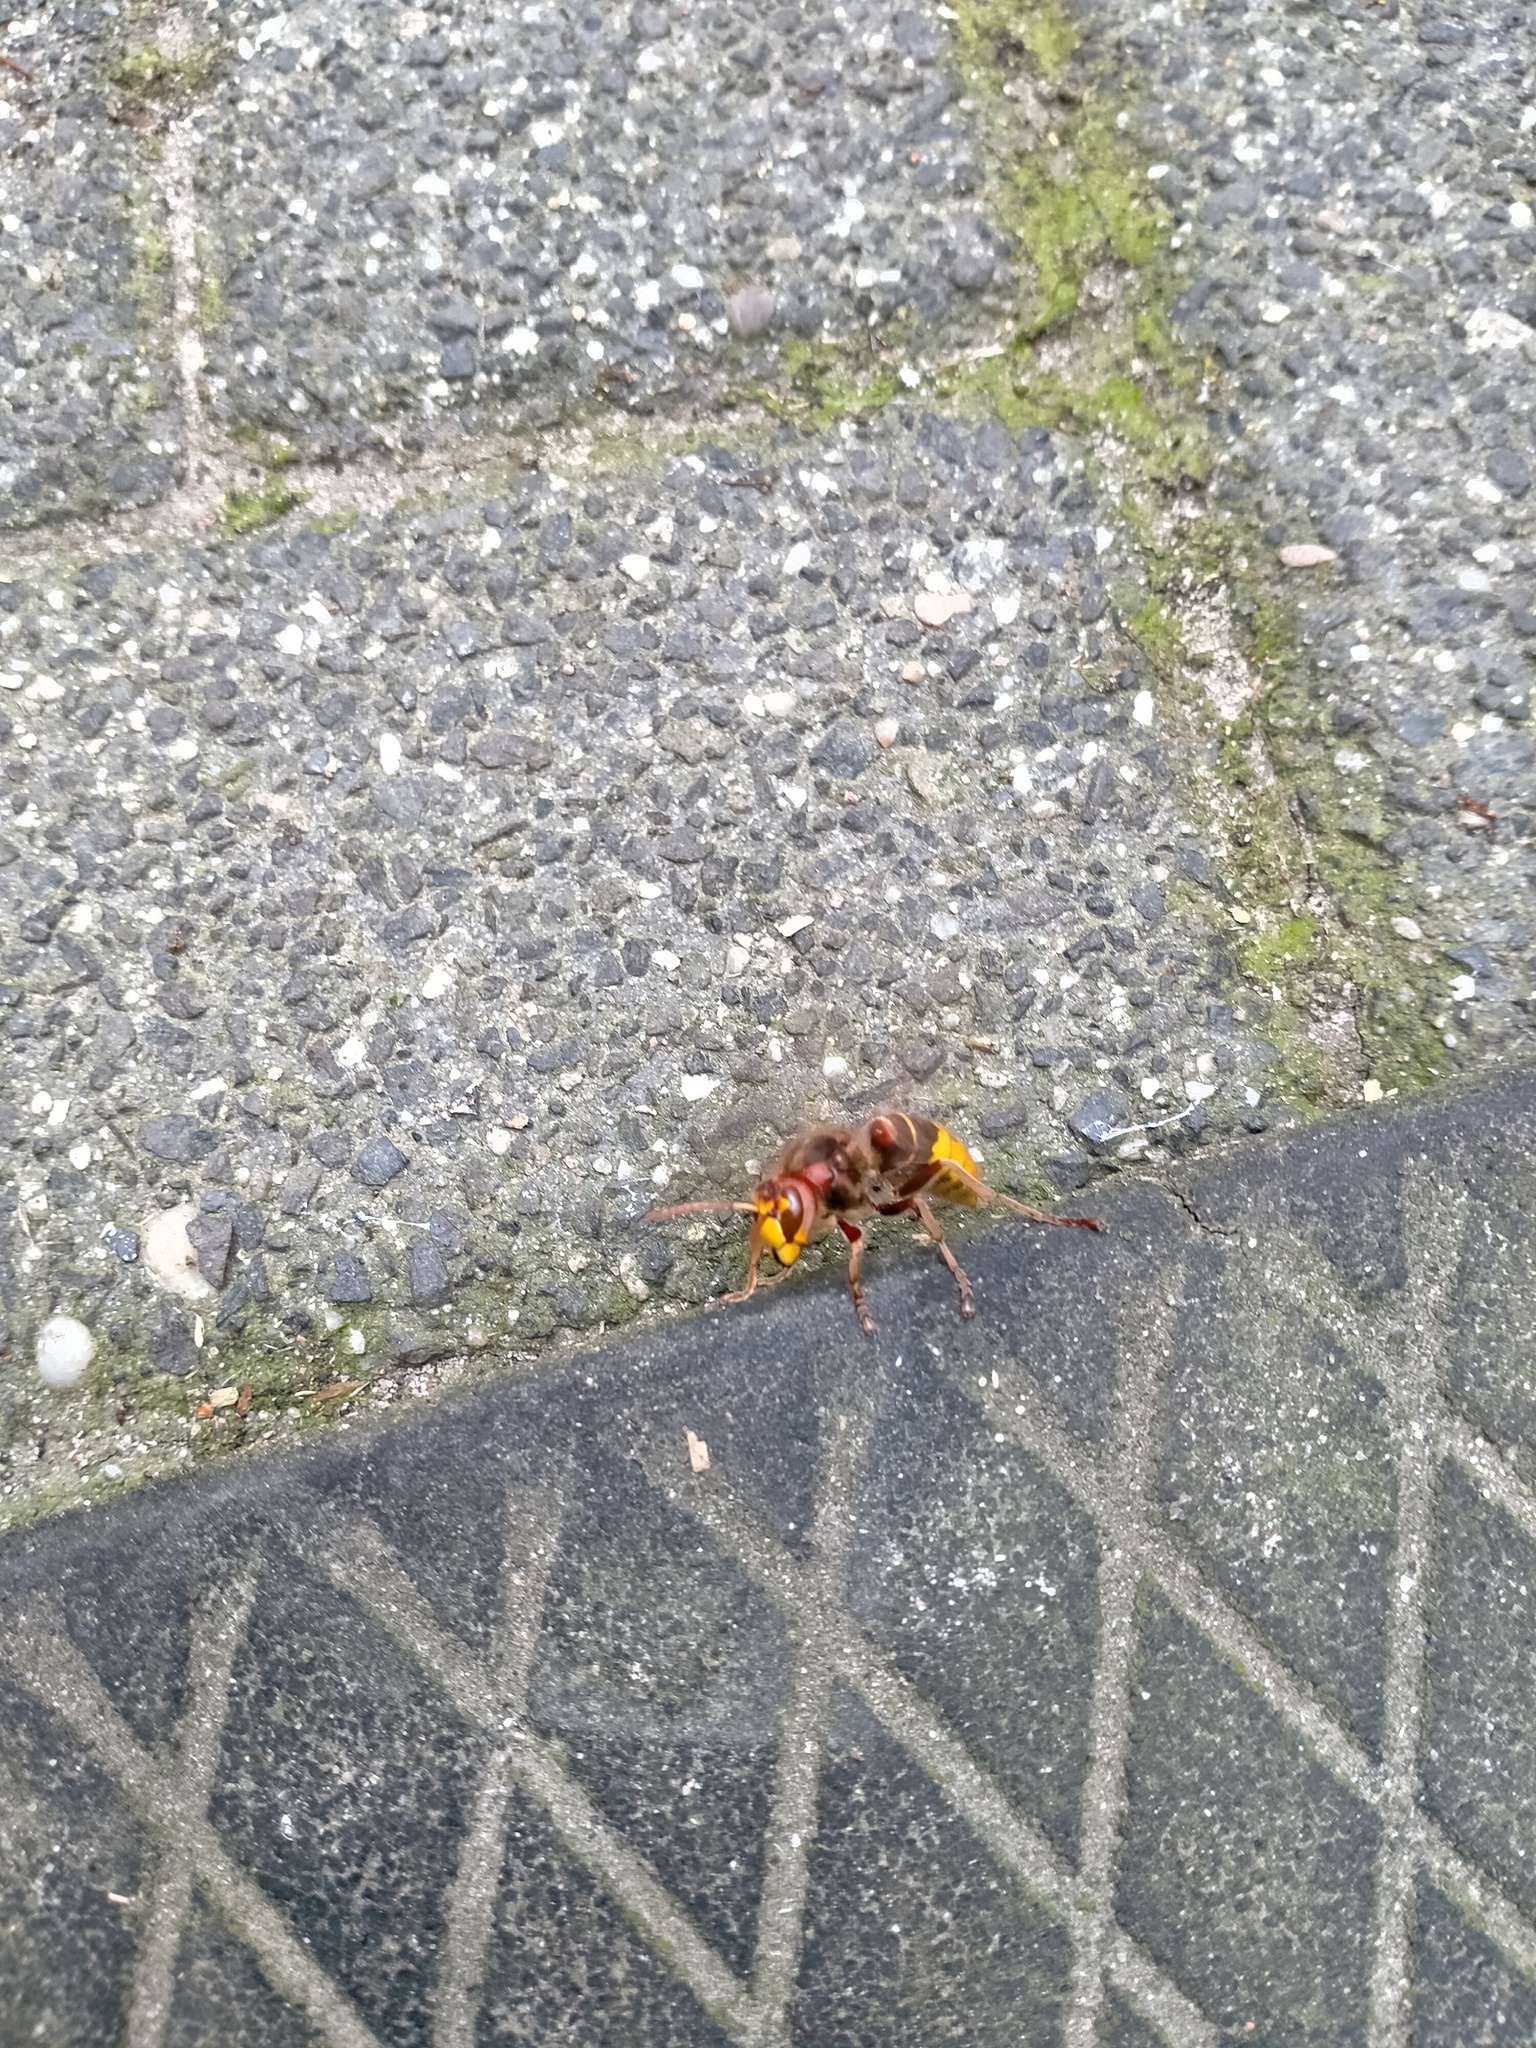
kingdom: Animalia
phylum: Arthropoda
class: Insecta
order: Hymenoptera
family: Vespidae
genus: Vespa
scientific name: Vespa crabro
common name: Hornet
